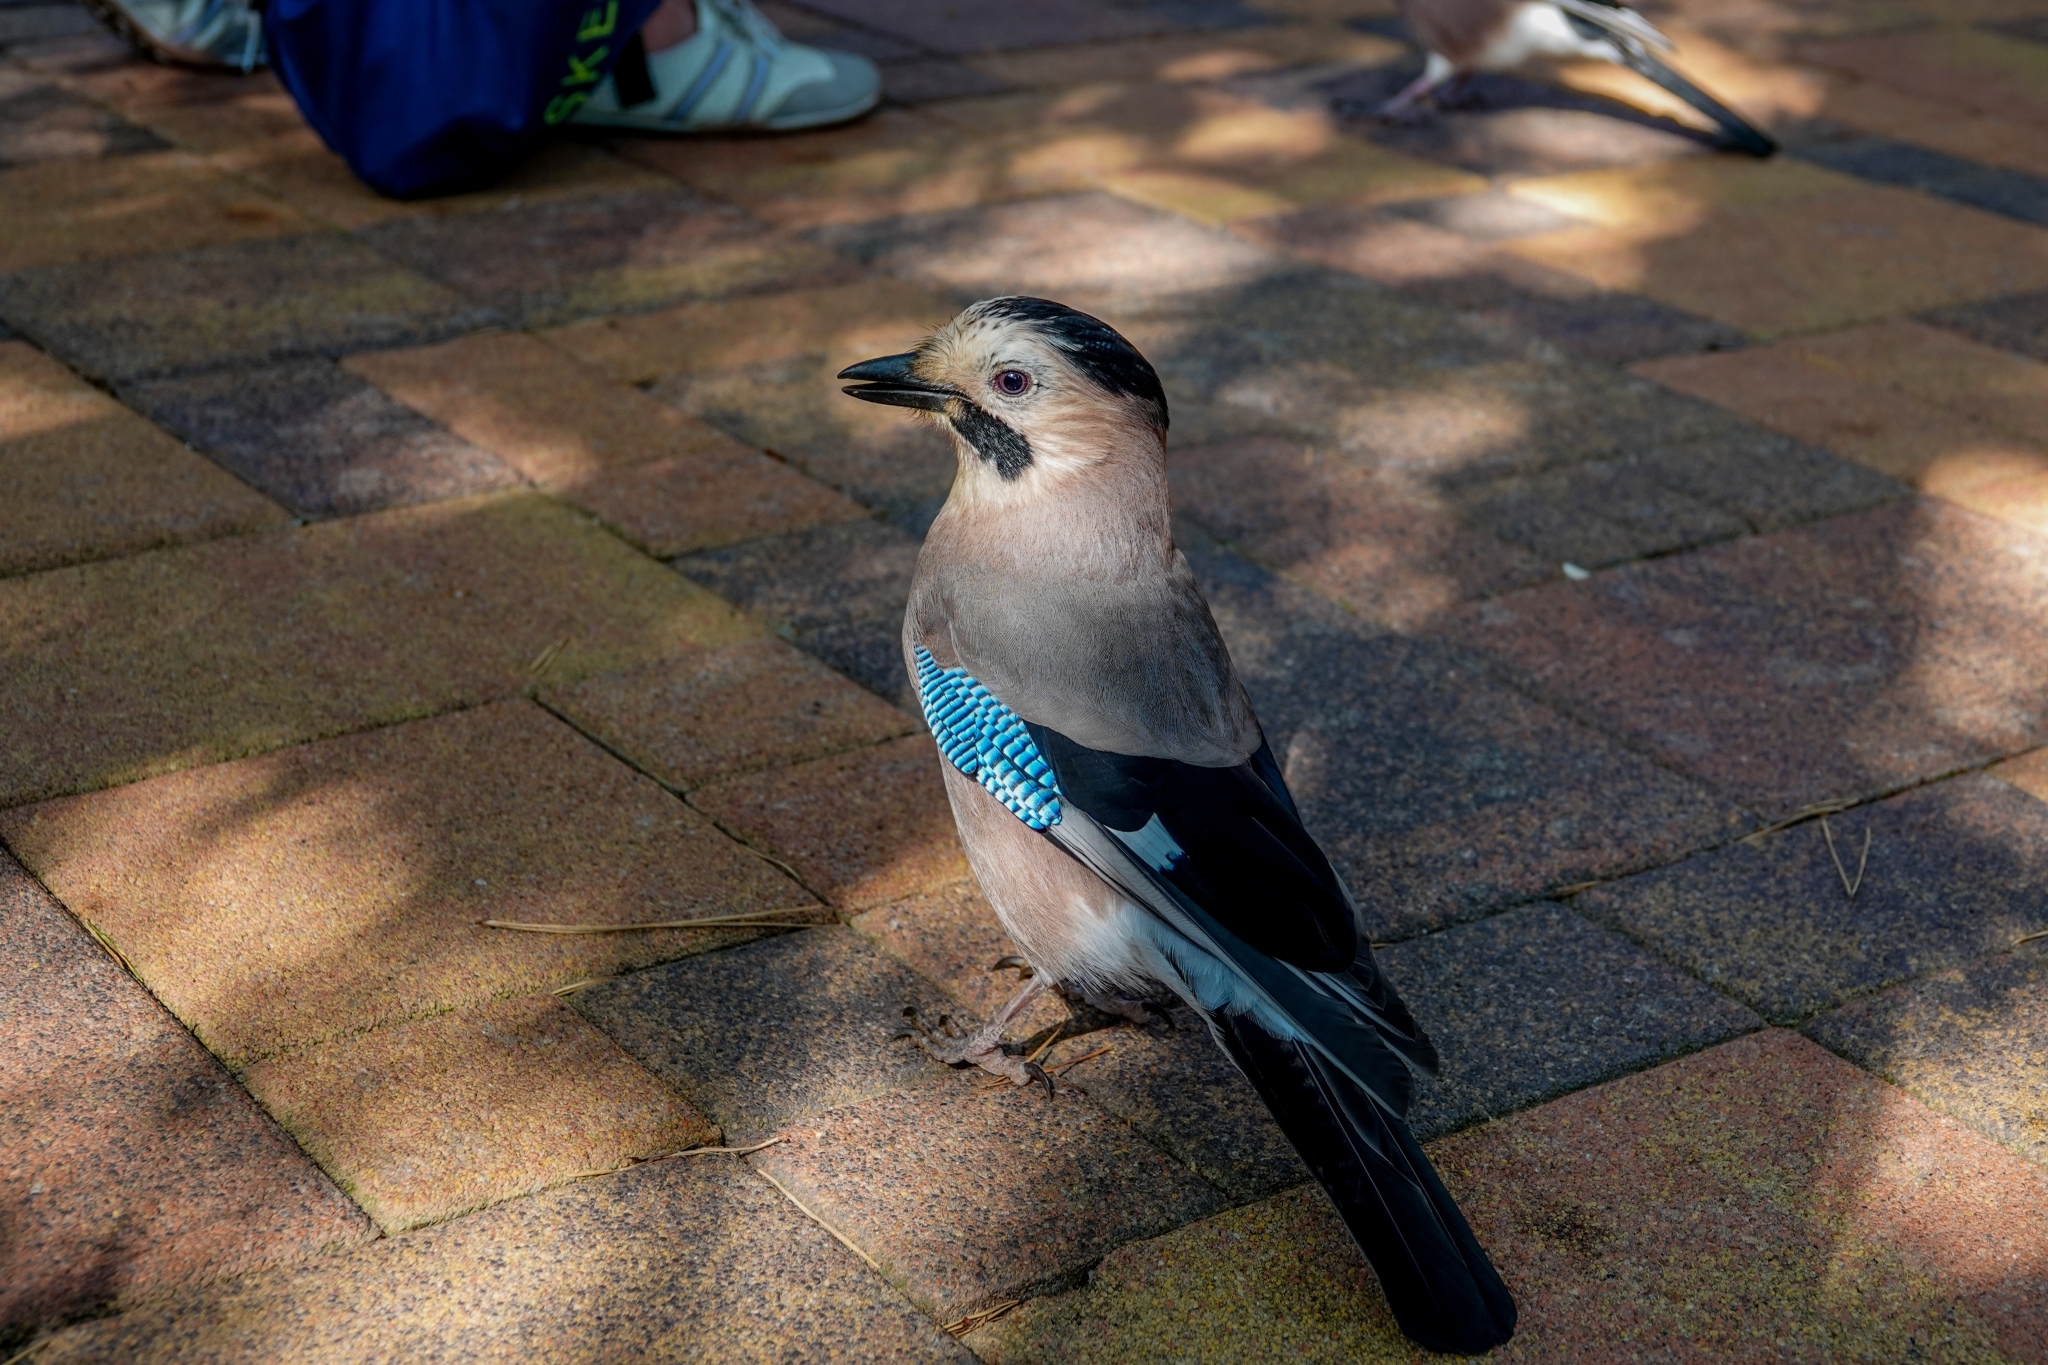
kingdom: Animalia
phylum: Chordata
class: Aves
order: Passeriformes
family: Corvidae
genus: Garrulus
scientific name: Garrulus glandarius
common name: Eurasian jay
